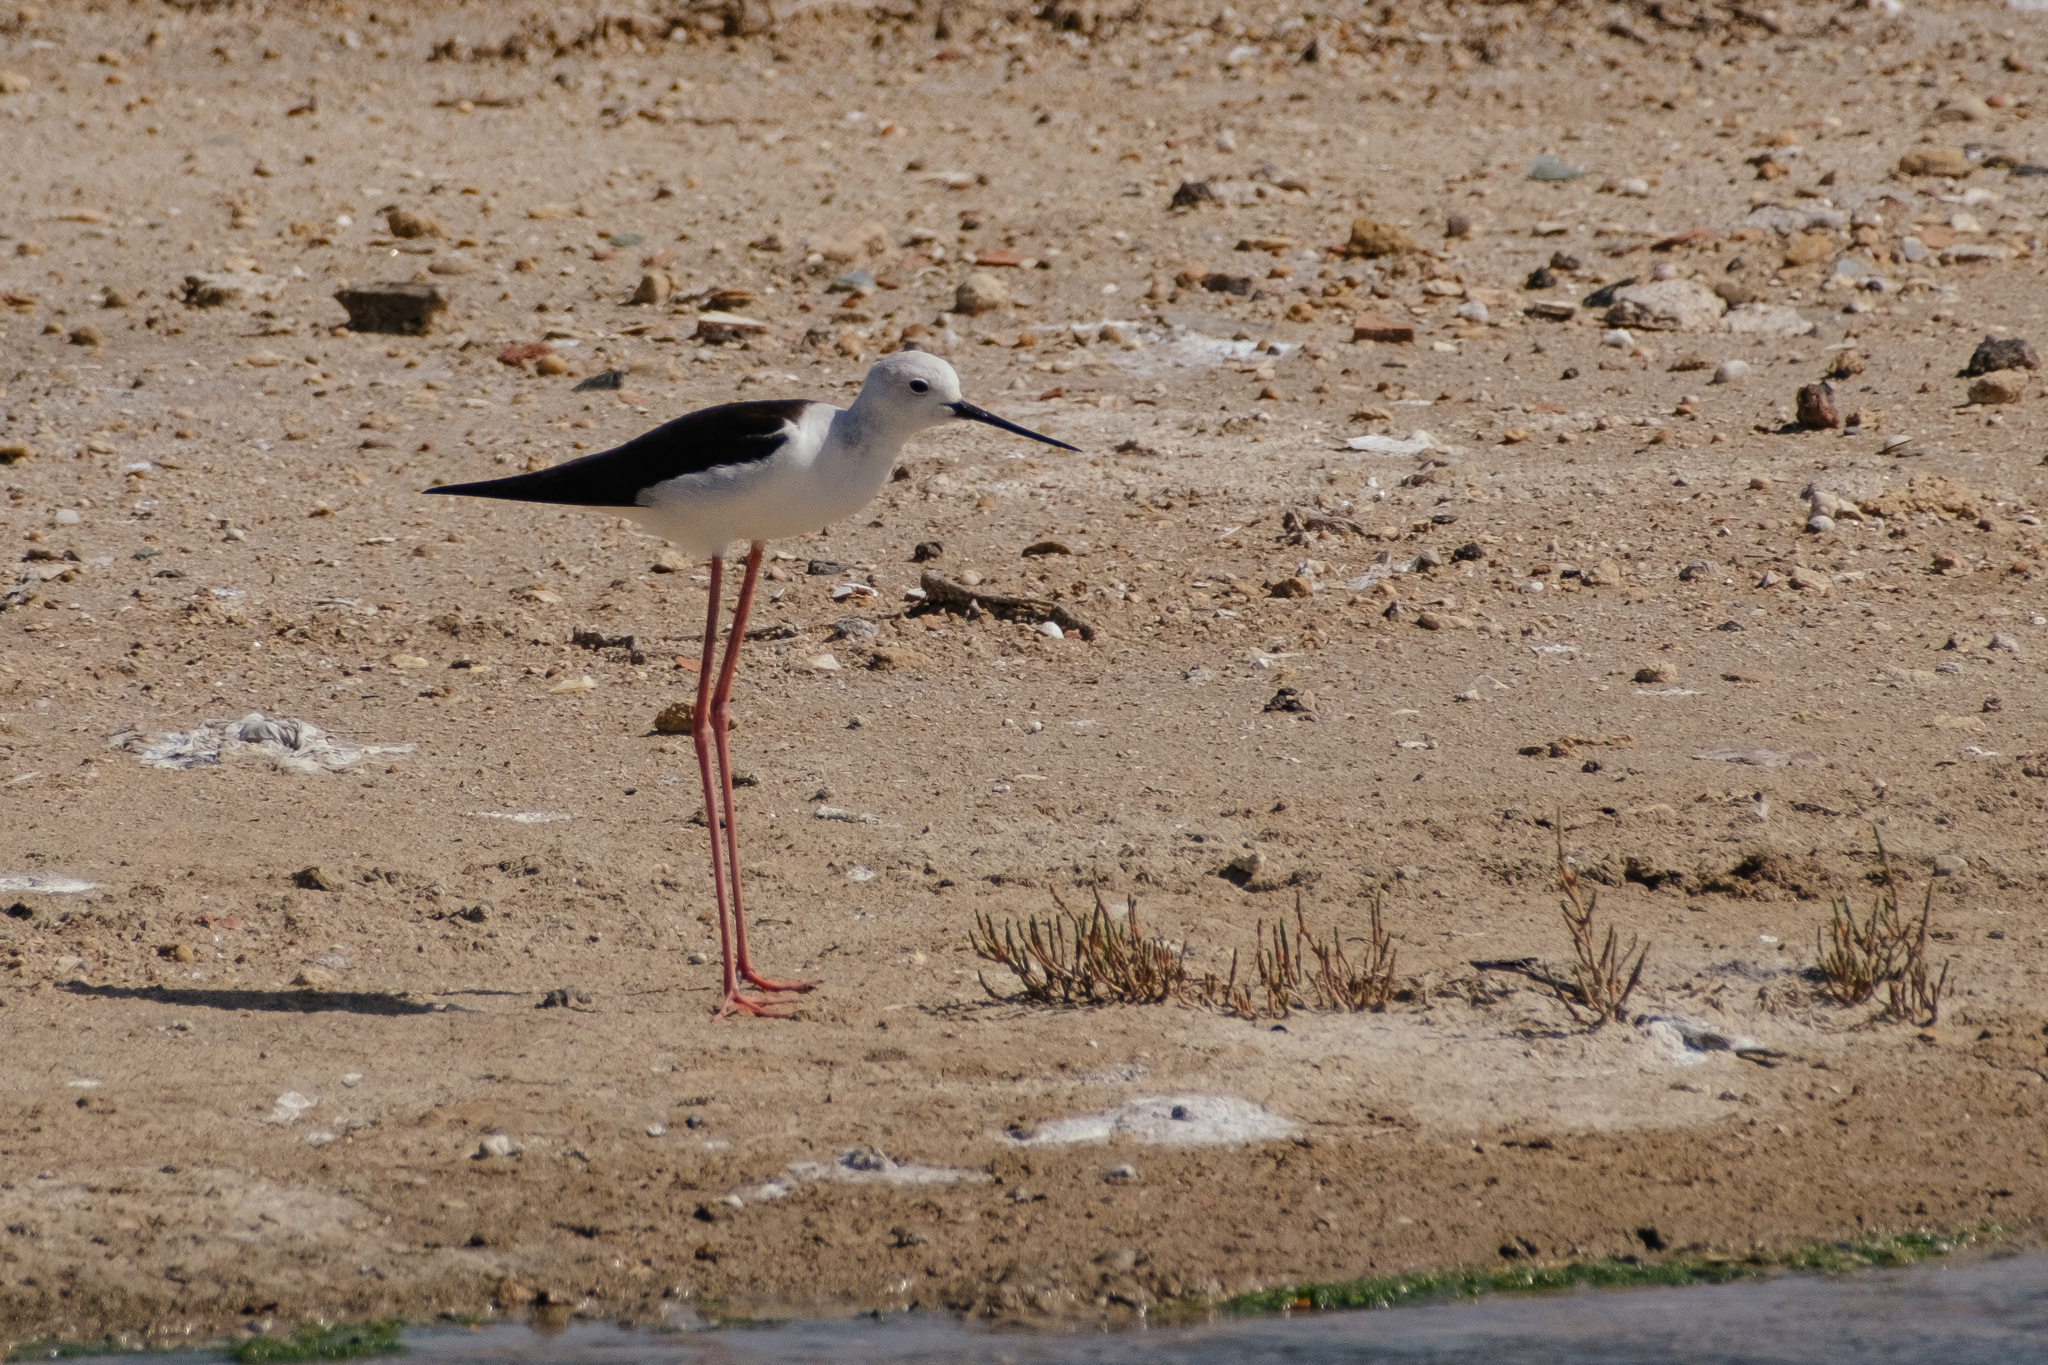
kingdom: Animalia
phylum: Chordata
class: Aves
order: Charadriiformes
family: Recurvirostridae
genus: Himantopus
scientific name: Himantopus himantopus
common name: Black-winged stilt
